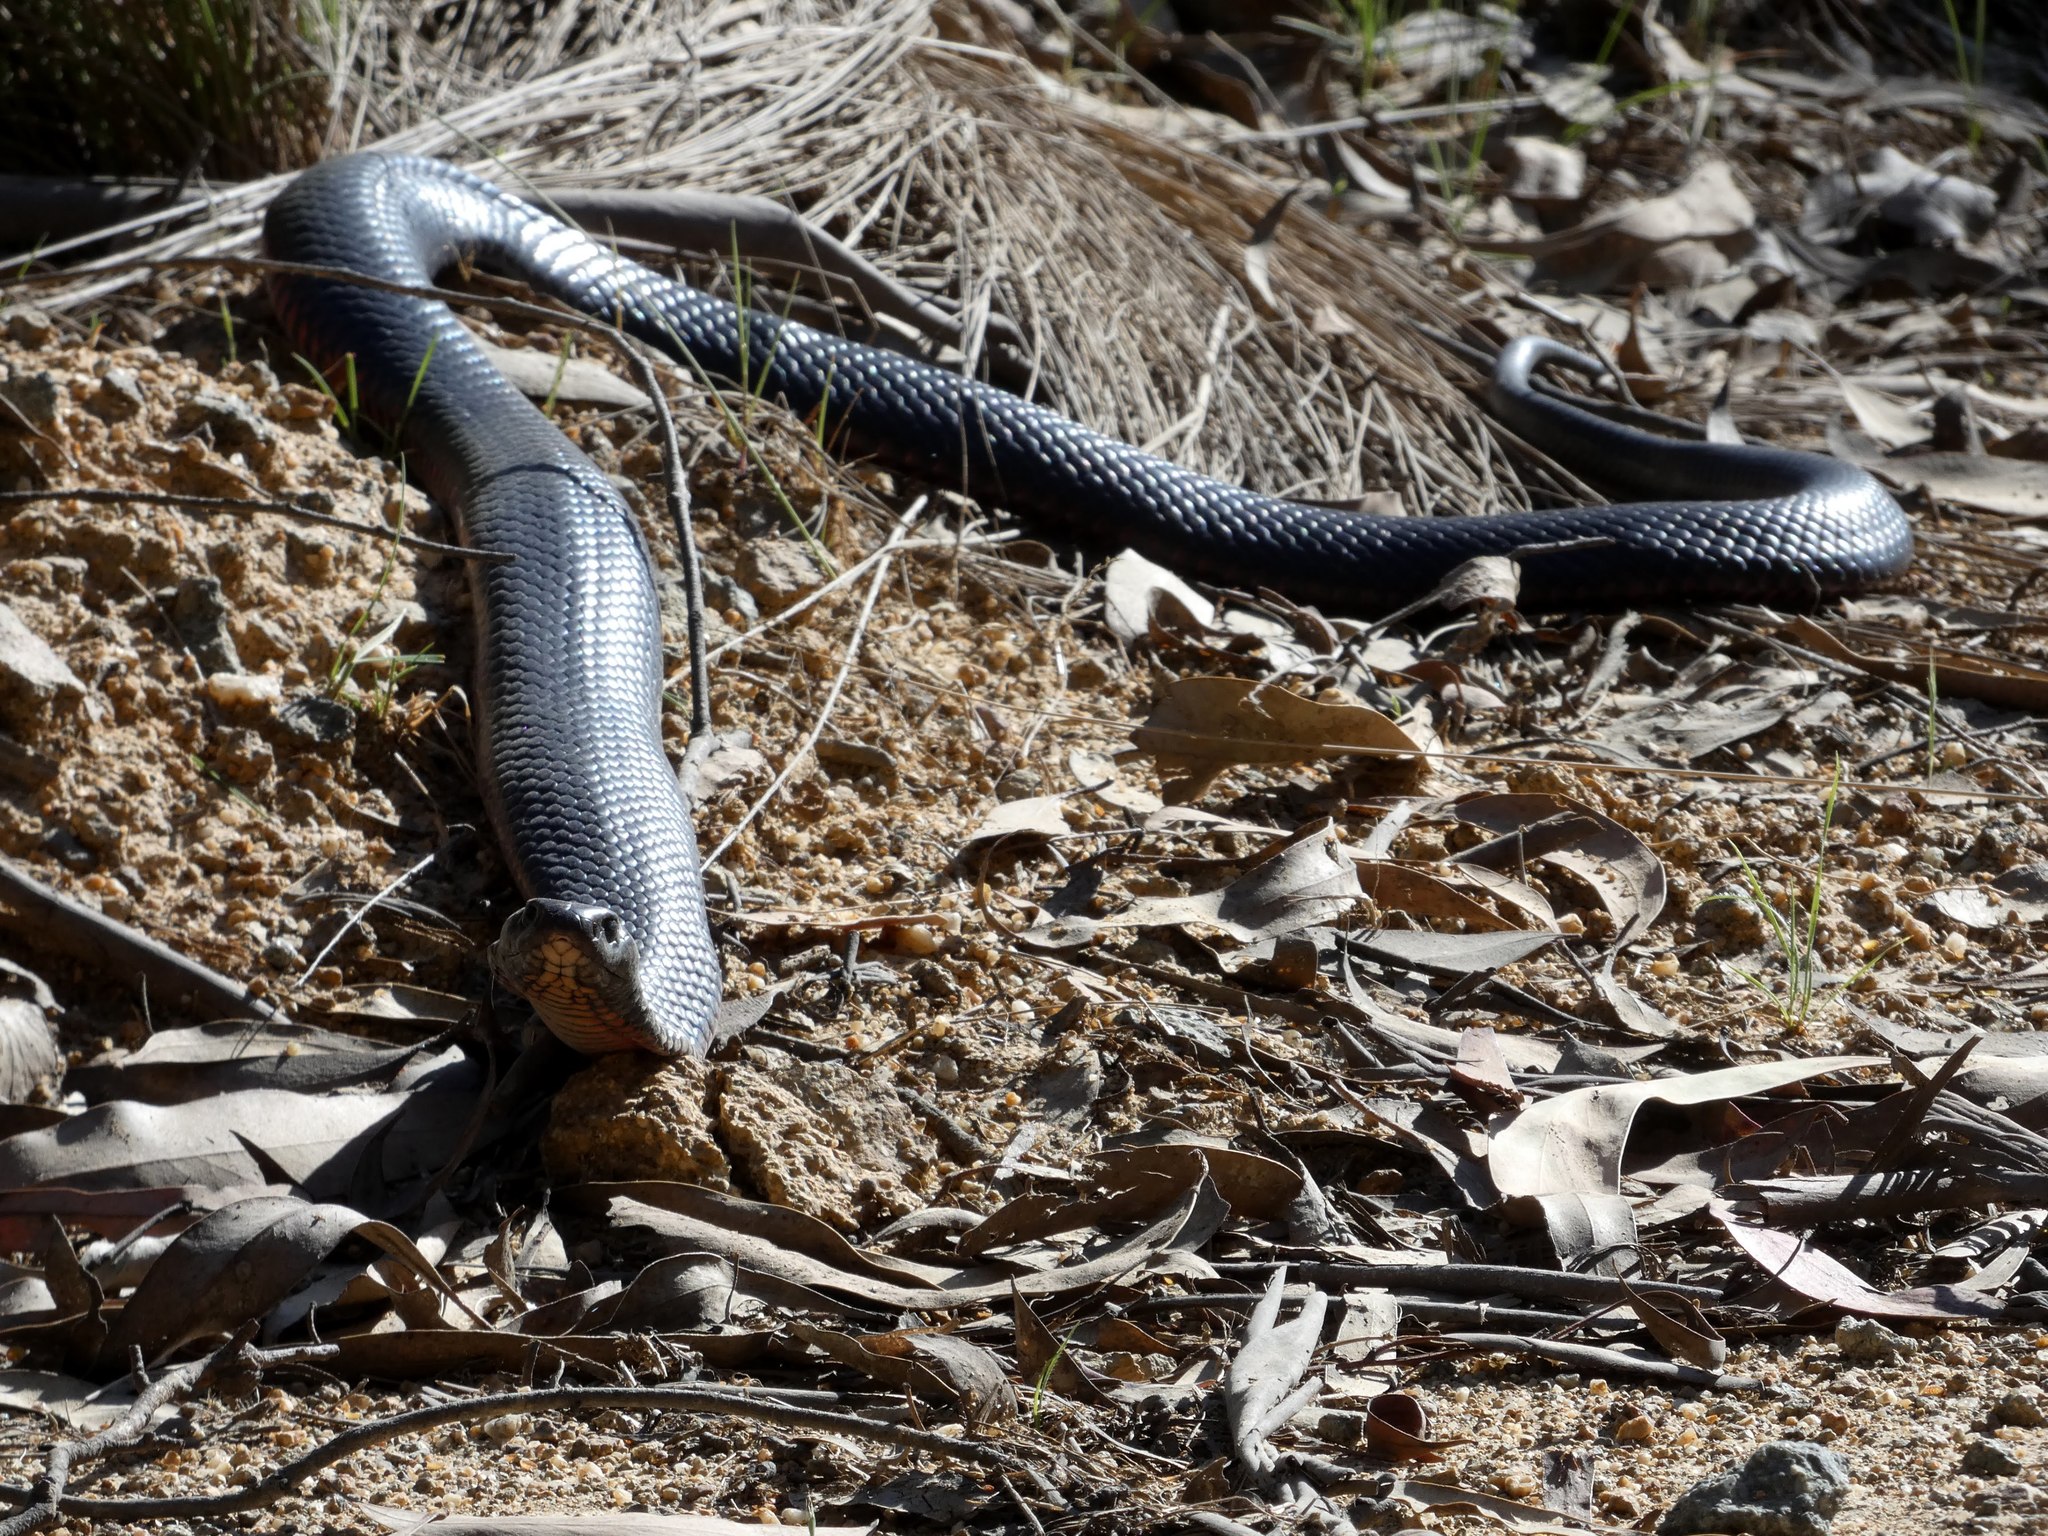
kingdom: Animalia
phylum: Chordata
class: Squamata
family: Elapidae
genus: Pseudechis
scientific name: Pseudechis porphyriacus
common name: Australian black snake
